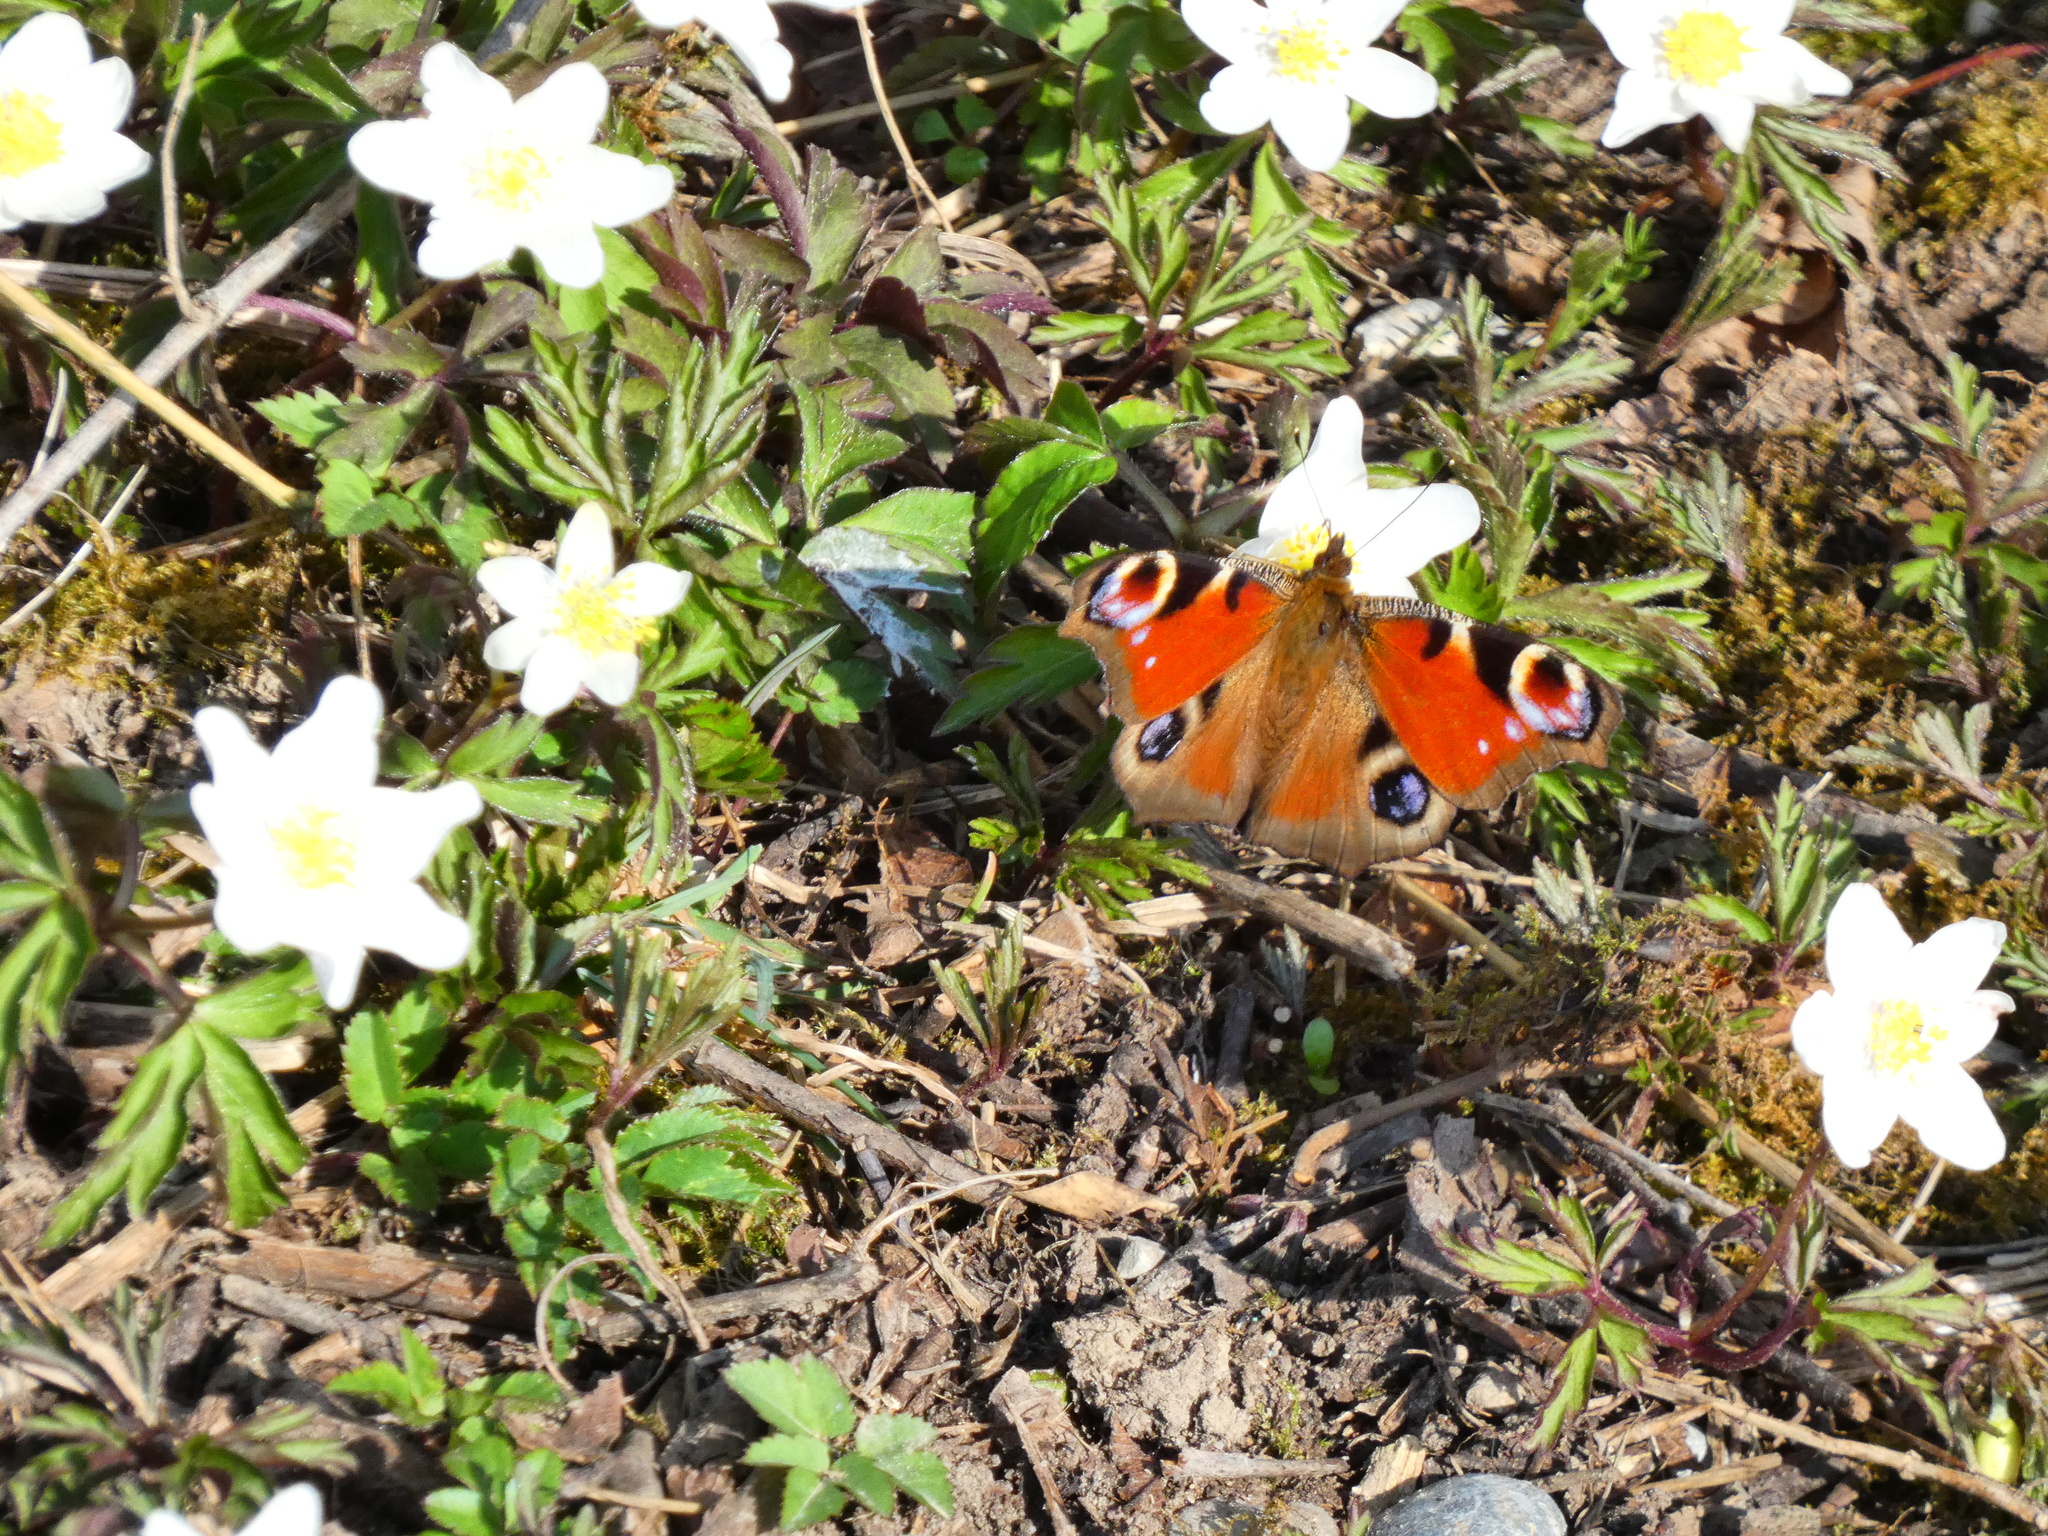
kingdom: Animalia
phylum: Arthropoda
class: Insecta
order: Lepidoptera
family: Nymphalidae
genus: Aglais
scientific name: Aglais io
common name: Peacock
